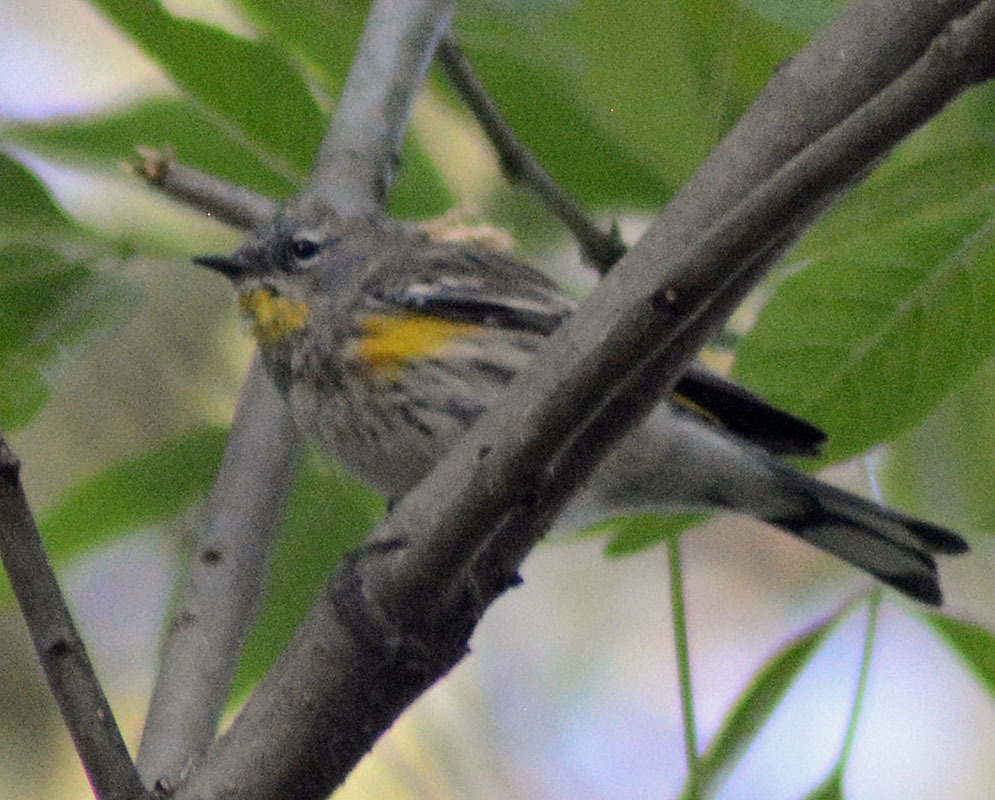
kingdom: Animalia
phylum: Chordata
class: Aves
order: Passeriformes
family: Parulidae
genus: Setophaga
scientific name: Setophaga auduboni
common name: Audubon's warbler
